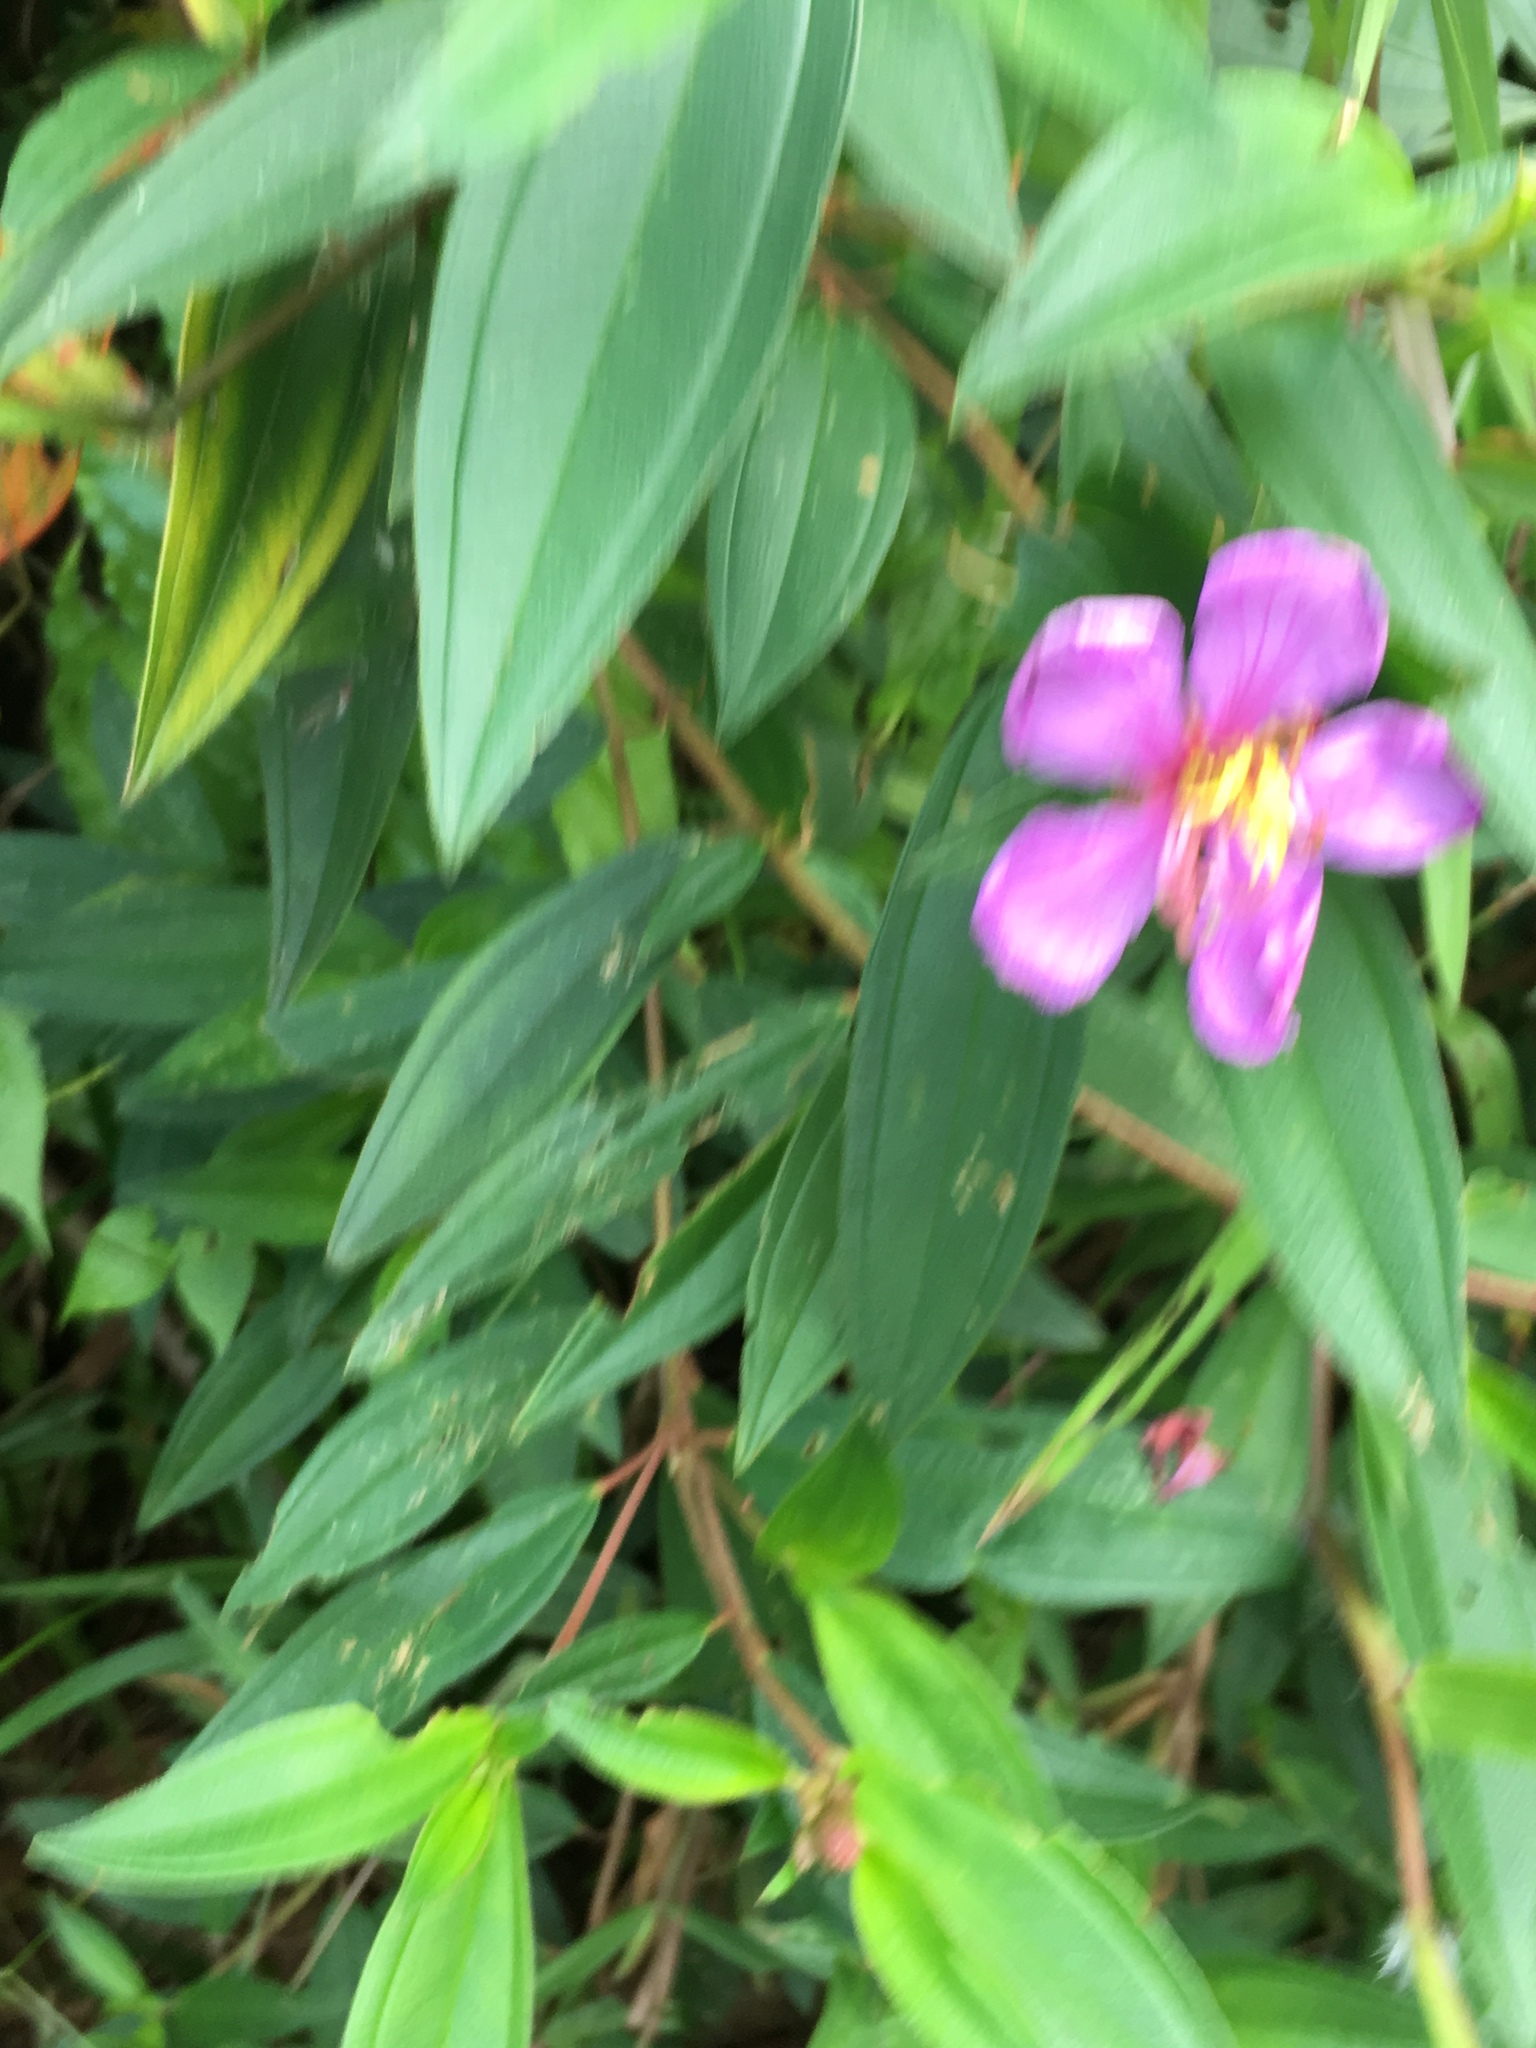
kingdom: Plantae
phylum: Tracheophyta
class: Magnoliopsida
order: Myrtales
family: Melastomataceae
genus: Melastoma
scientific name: Melastoma malabathricum
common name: Indian-rhododendron
